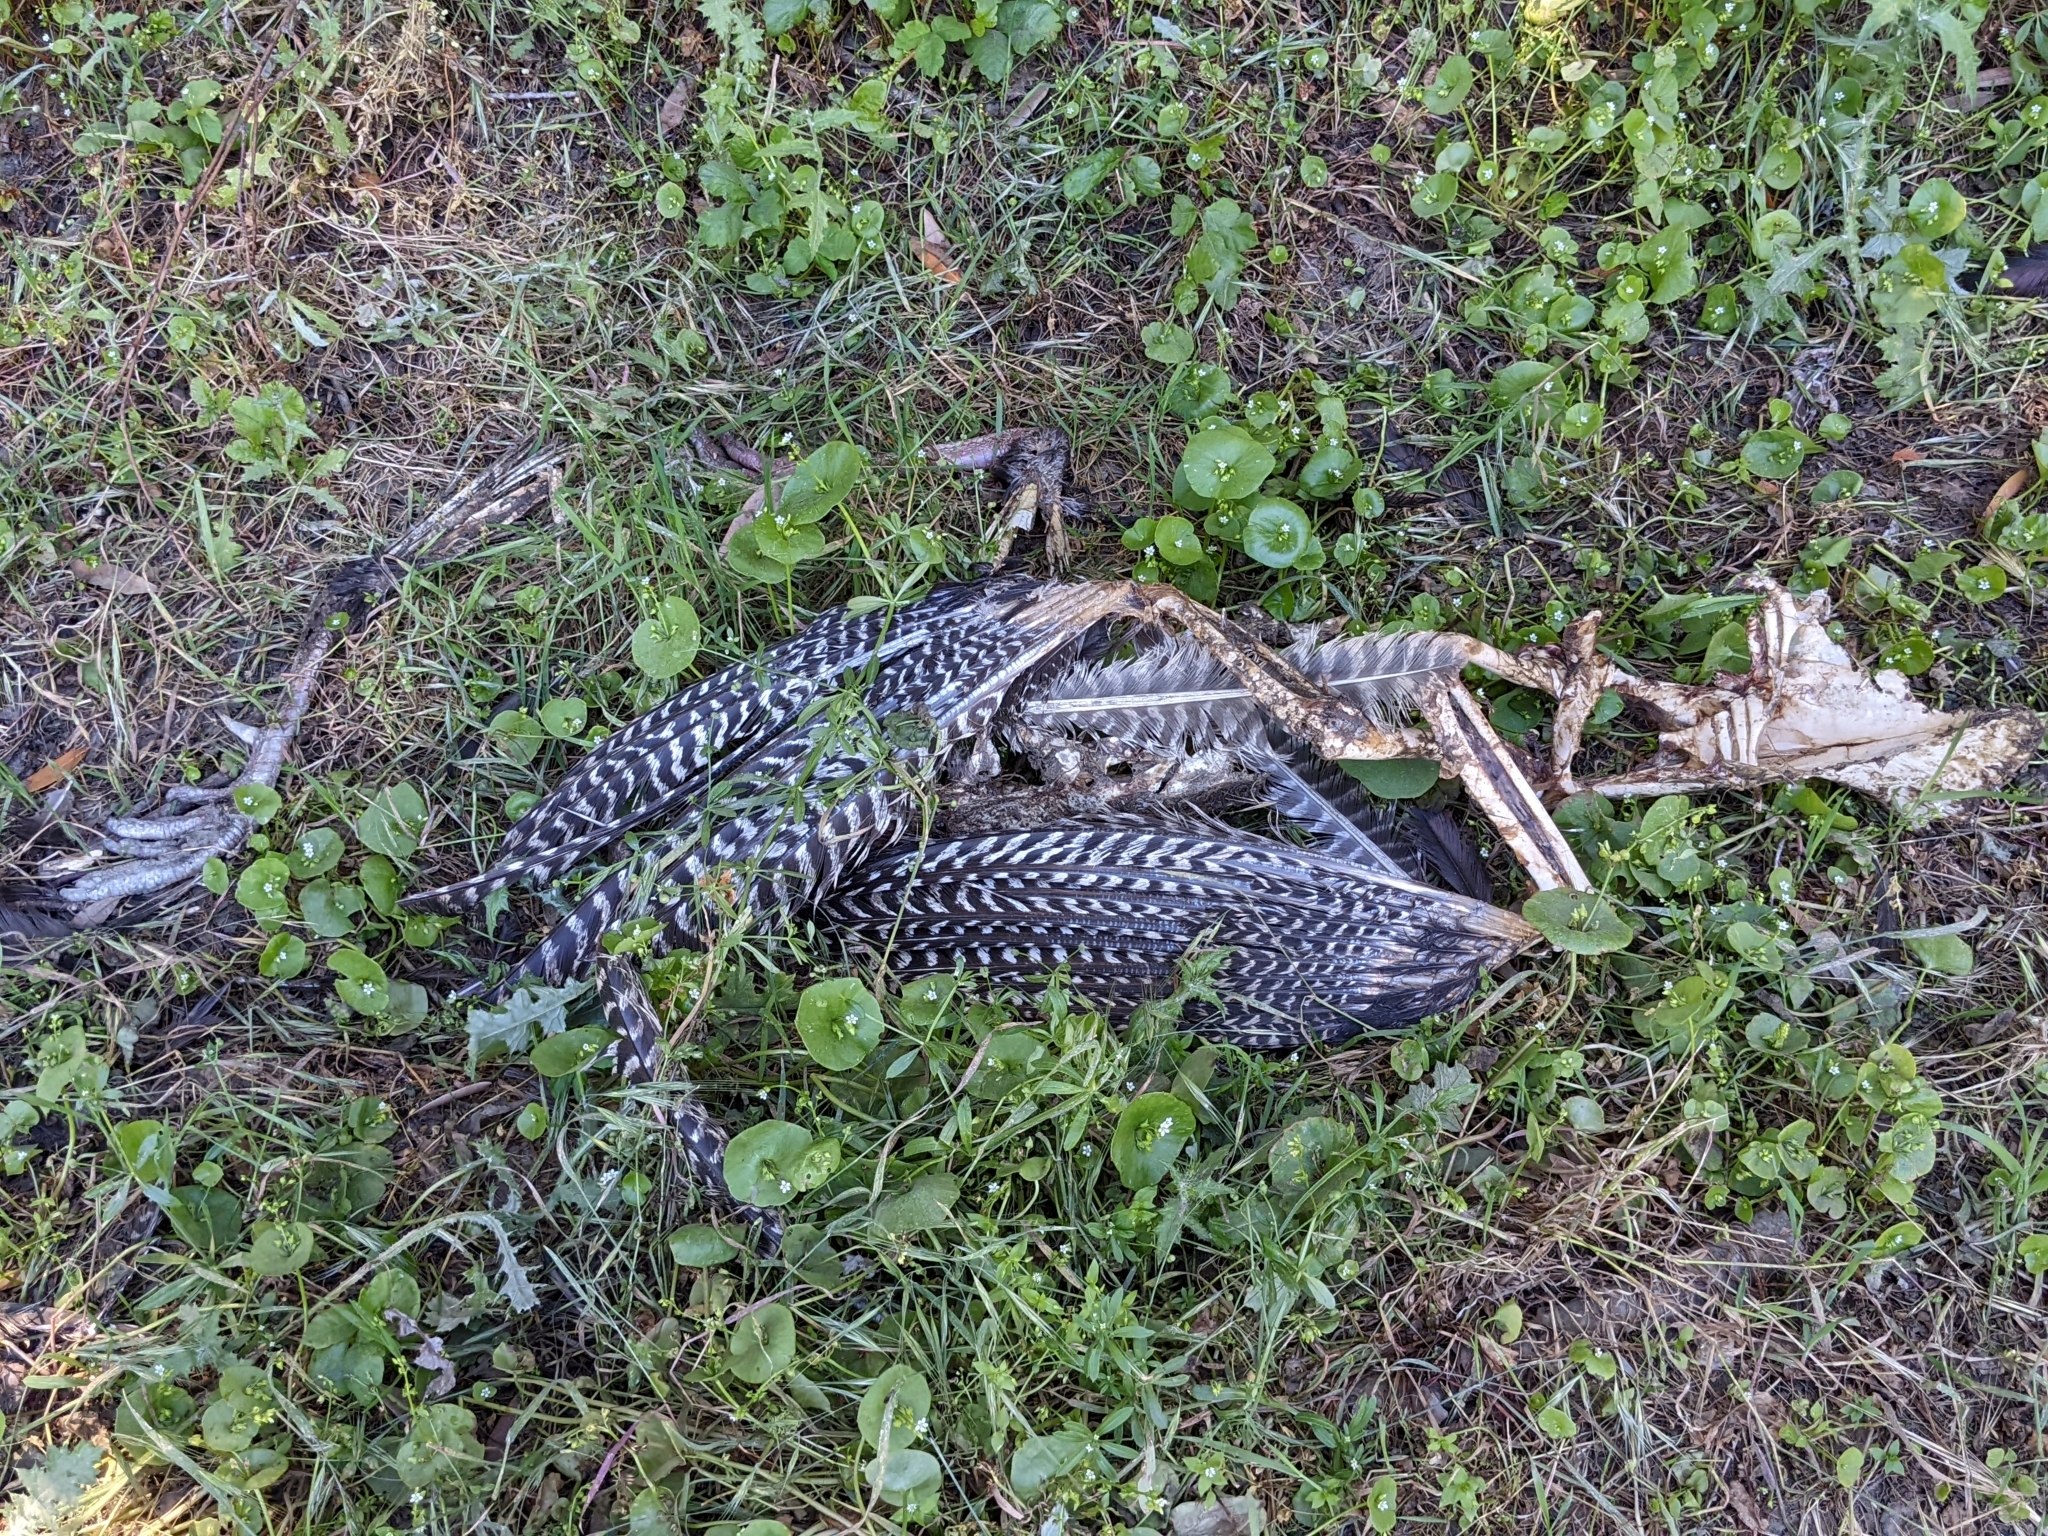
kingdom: Animalia
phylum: Chordata
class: Aves
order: Galliformes
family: Phasianidae
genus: Meleagris
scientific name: Meleagris gallopavo
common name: Wild turkey
